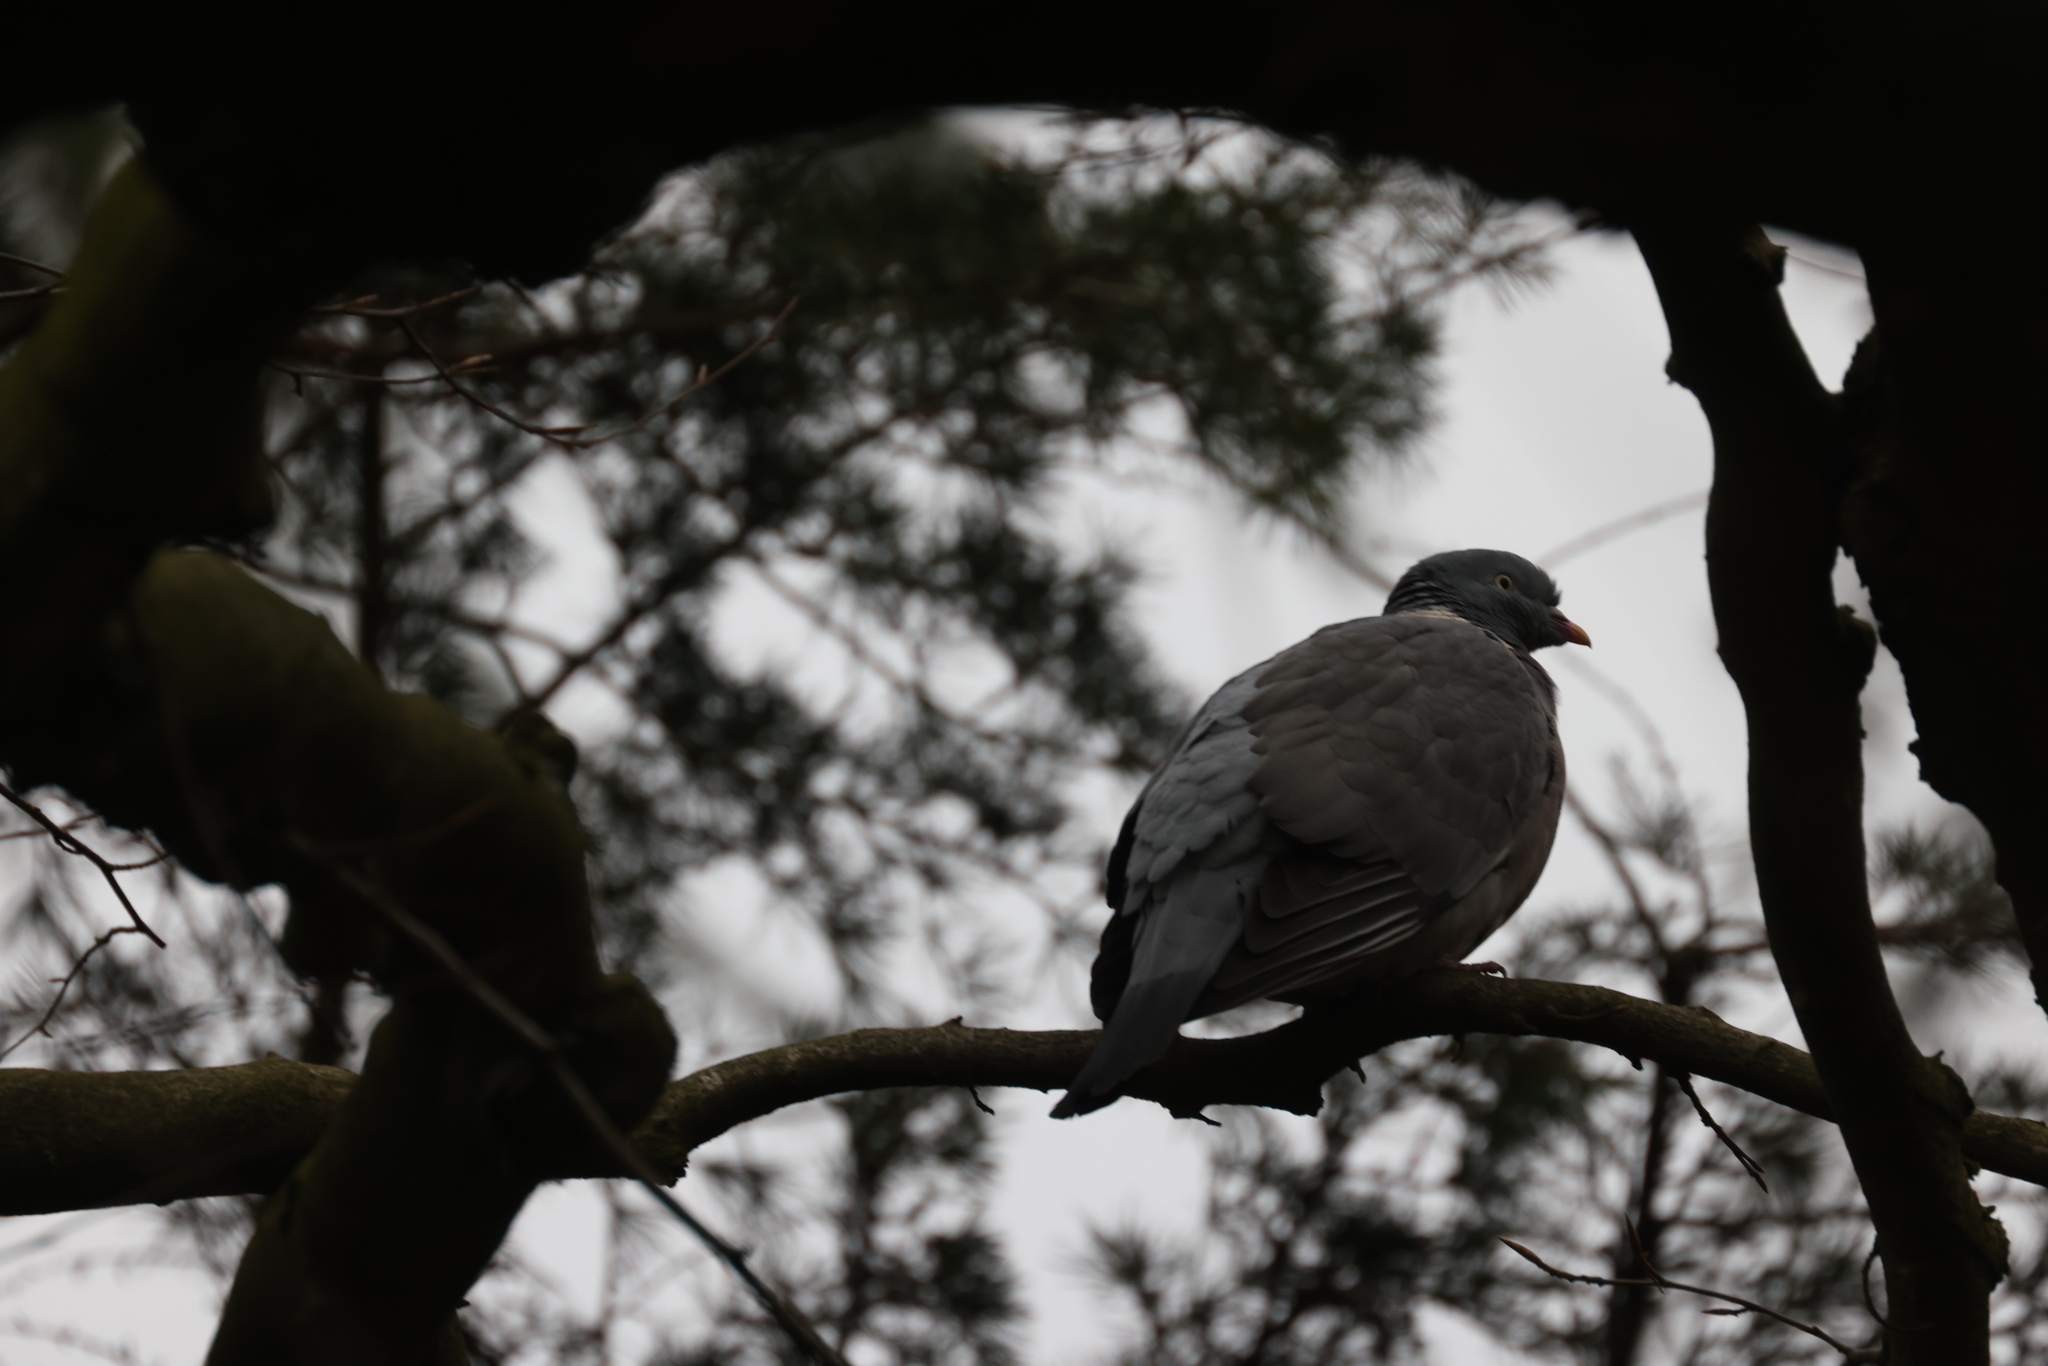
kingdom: Animalia
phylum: Chordata
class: Aves
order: Columbiformes
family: Columbidae
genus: Columba
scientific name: Columba palumbus
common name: Common wood pigeon
